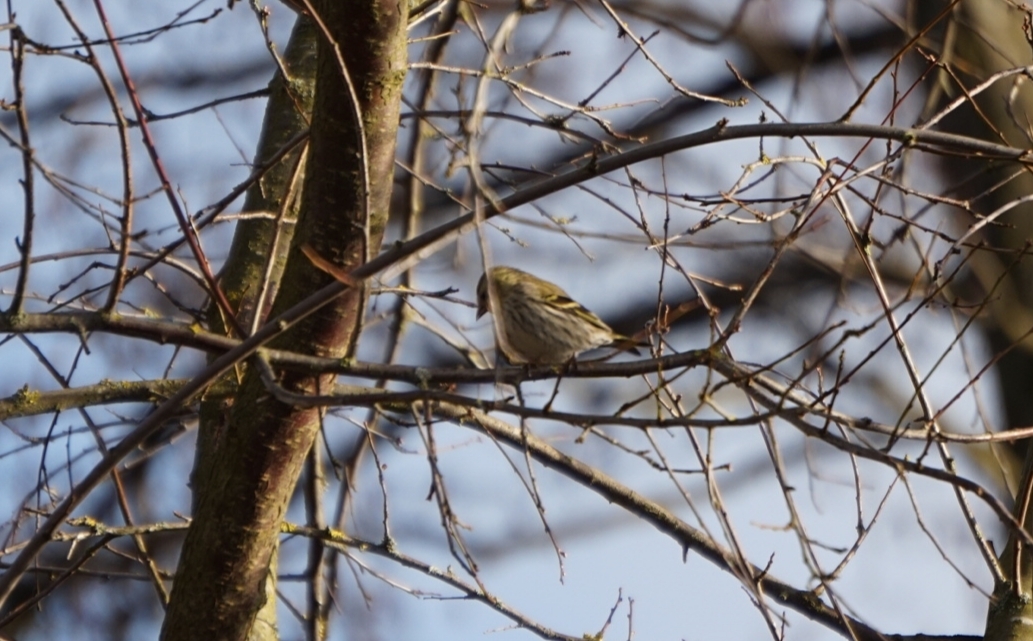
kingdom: Animalia
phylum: Chordata
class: Aves
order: Passeriformes
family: Fringillidae
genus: Spinus
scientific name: Spinus spinus
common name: Eurasian siskin
